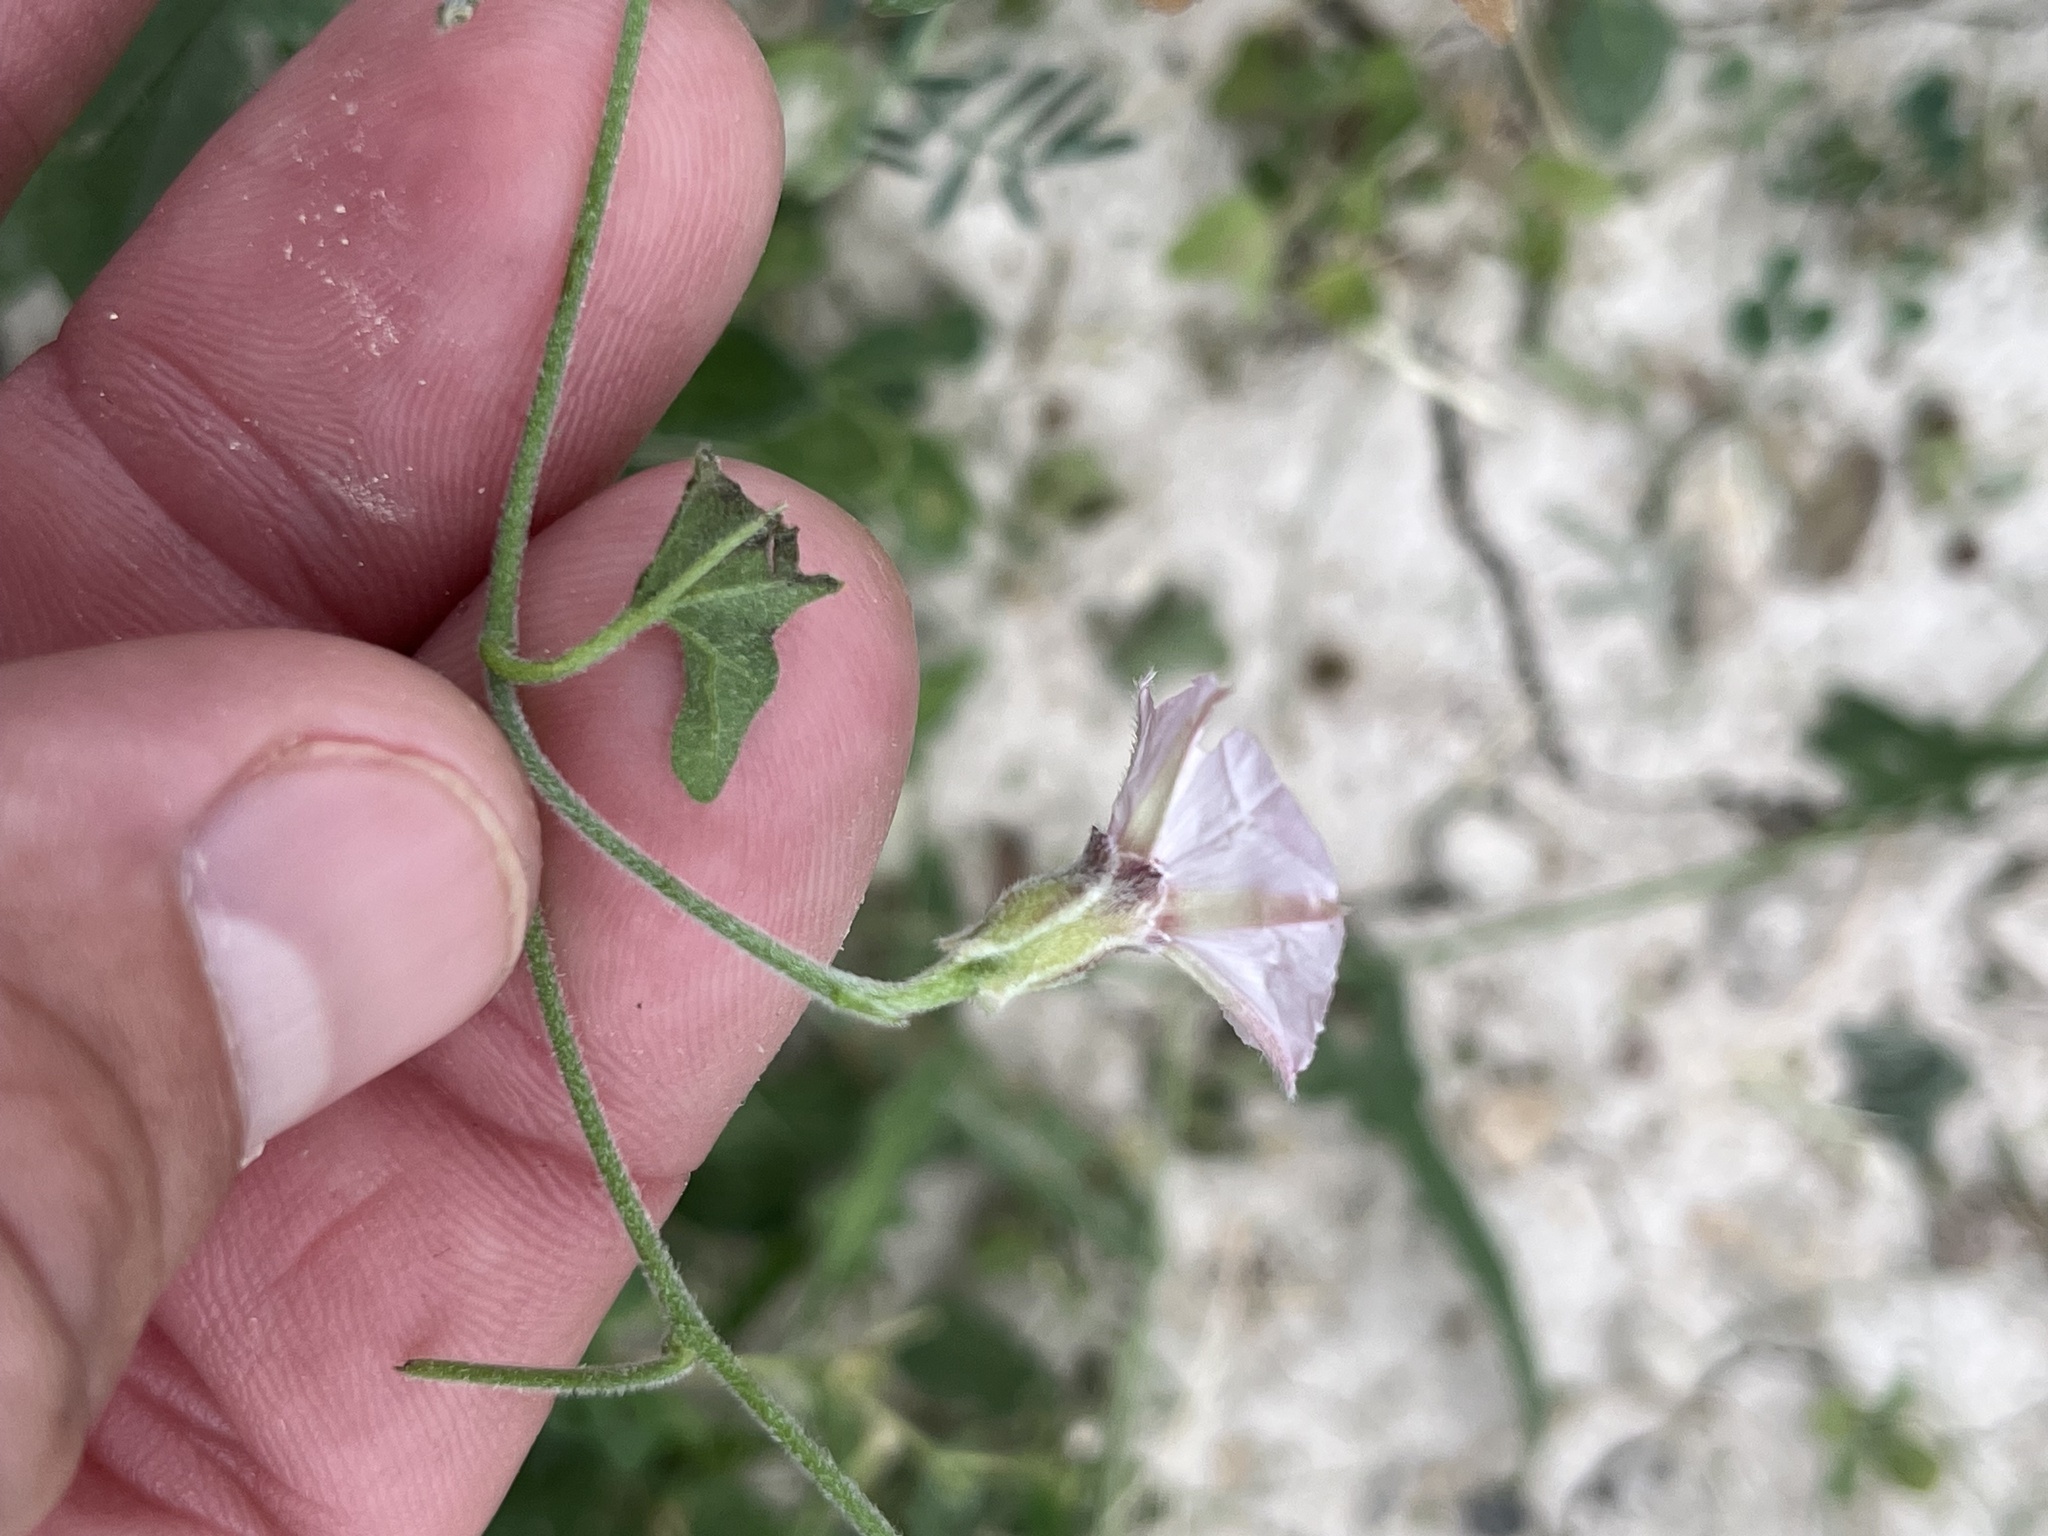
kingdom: Plantae
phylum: Tracheophyta
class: Magnoliopsida
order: Solanales
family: Convolvulaceae
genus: Convolvulus
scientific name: Convolvulus equitans
